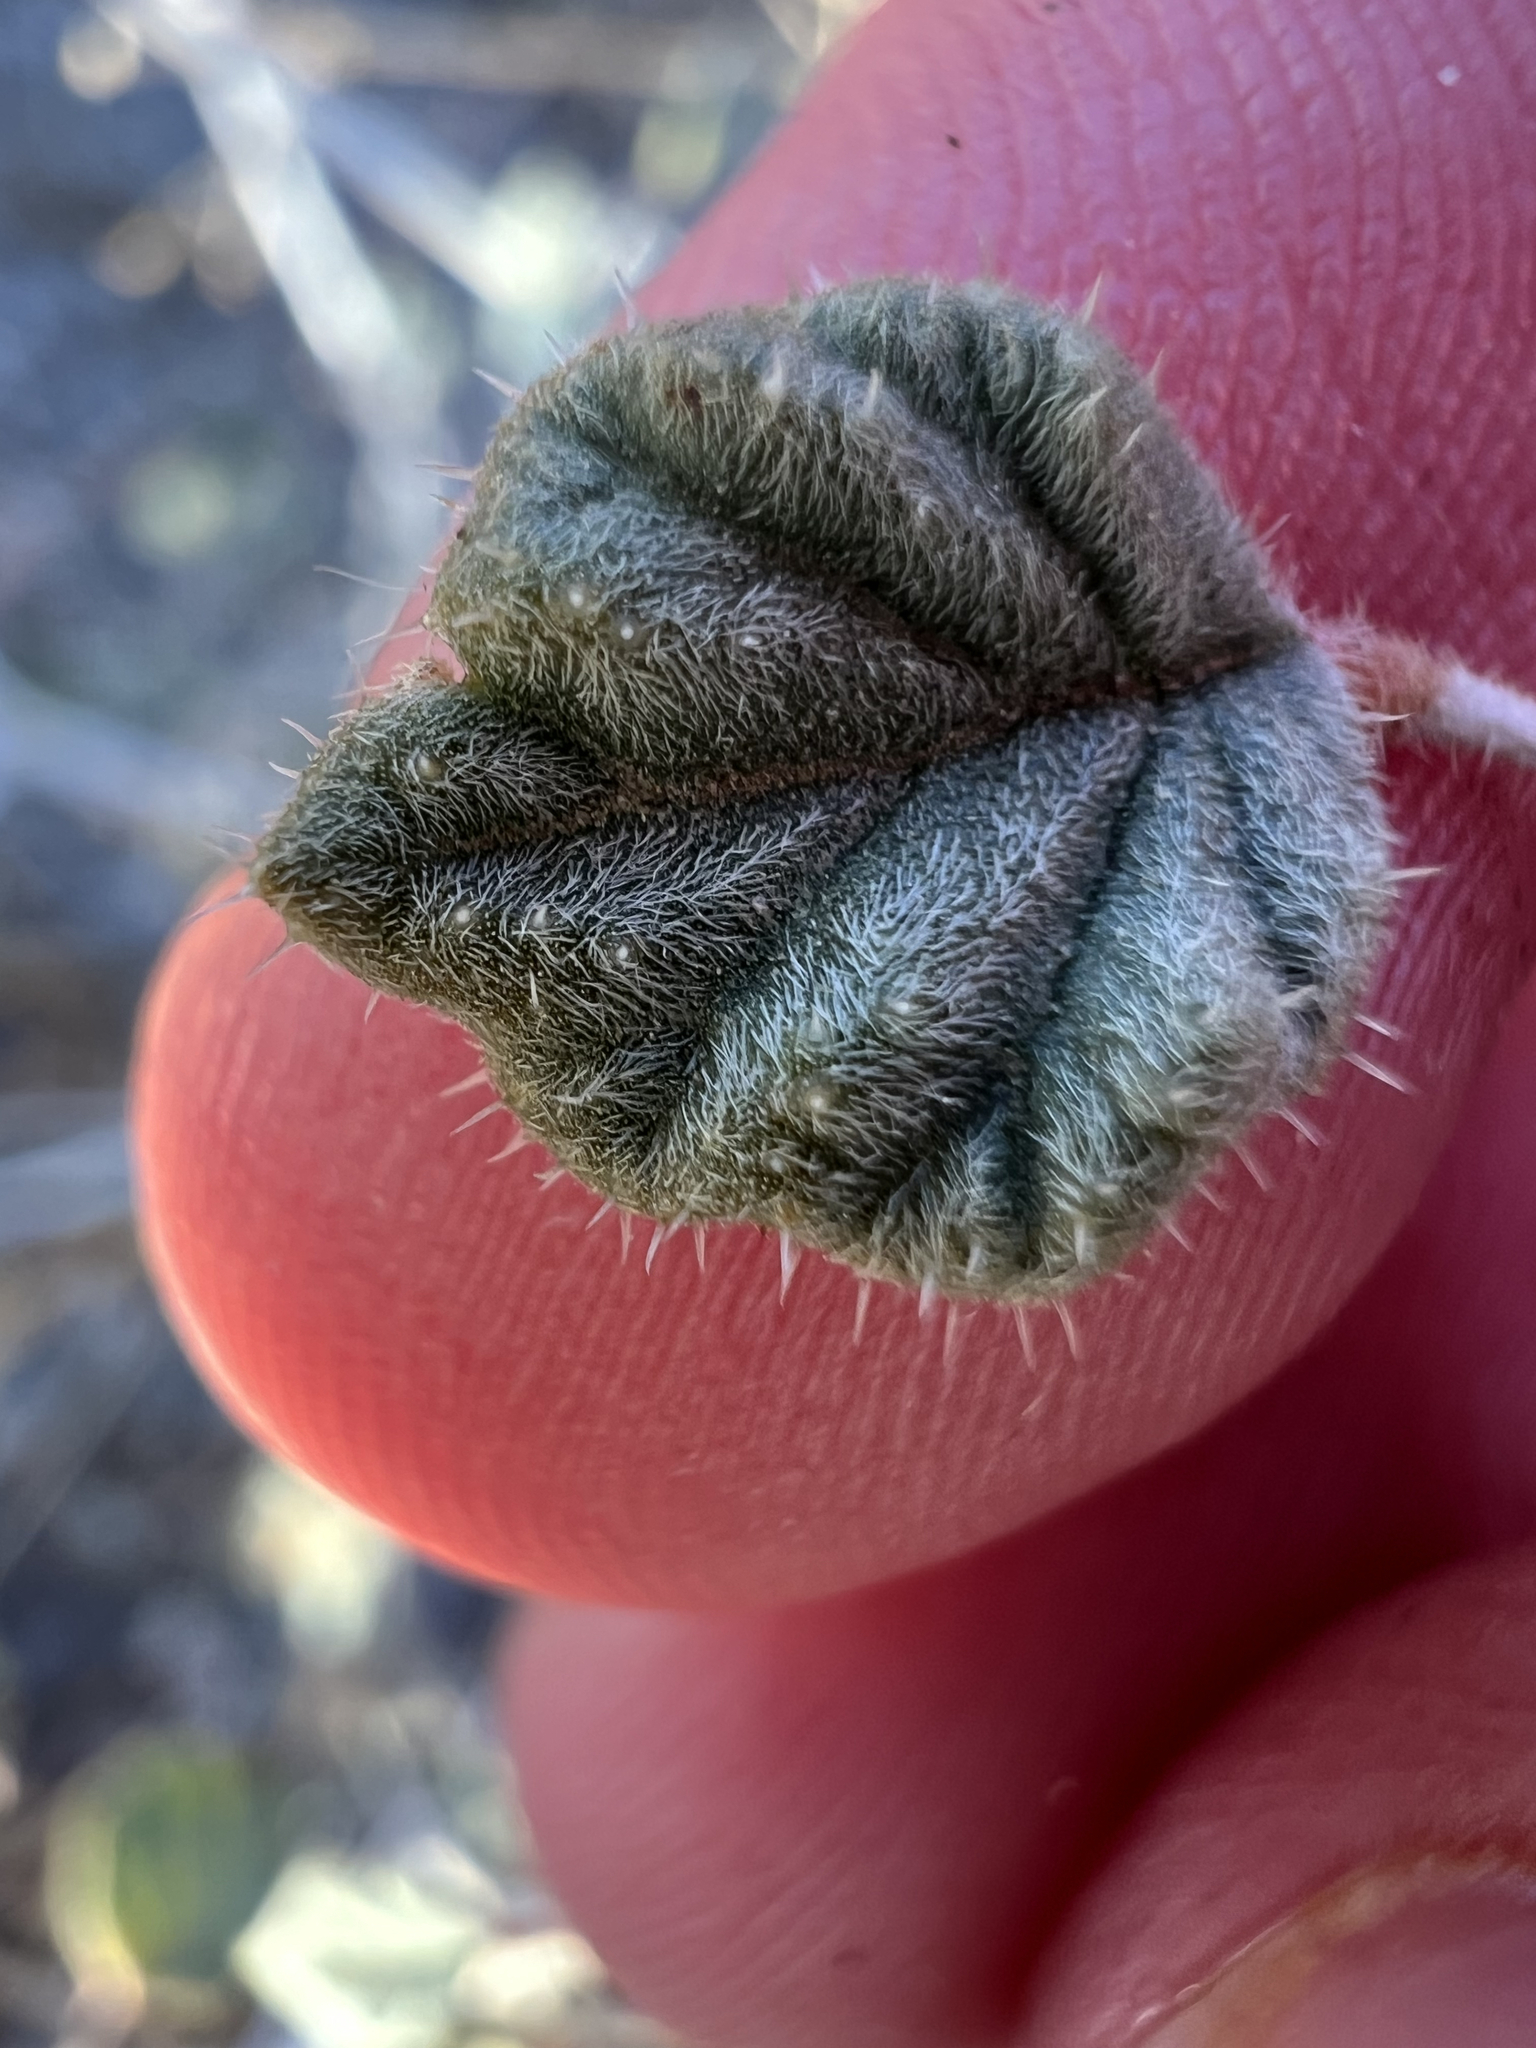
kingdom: Plantae
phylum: Tracheophyta
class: Magnoliopsida
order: Boraginales
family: Ehretiaceae
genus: Tiquilia
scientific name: Tiquilia palmeri
